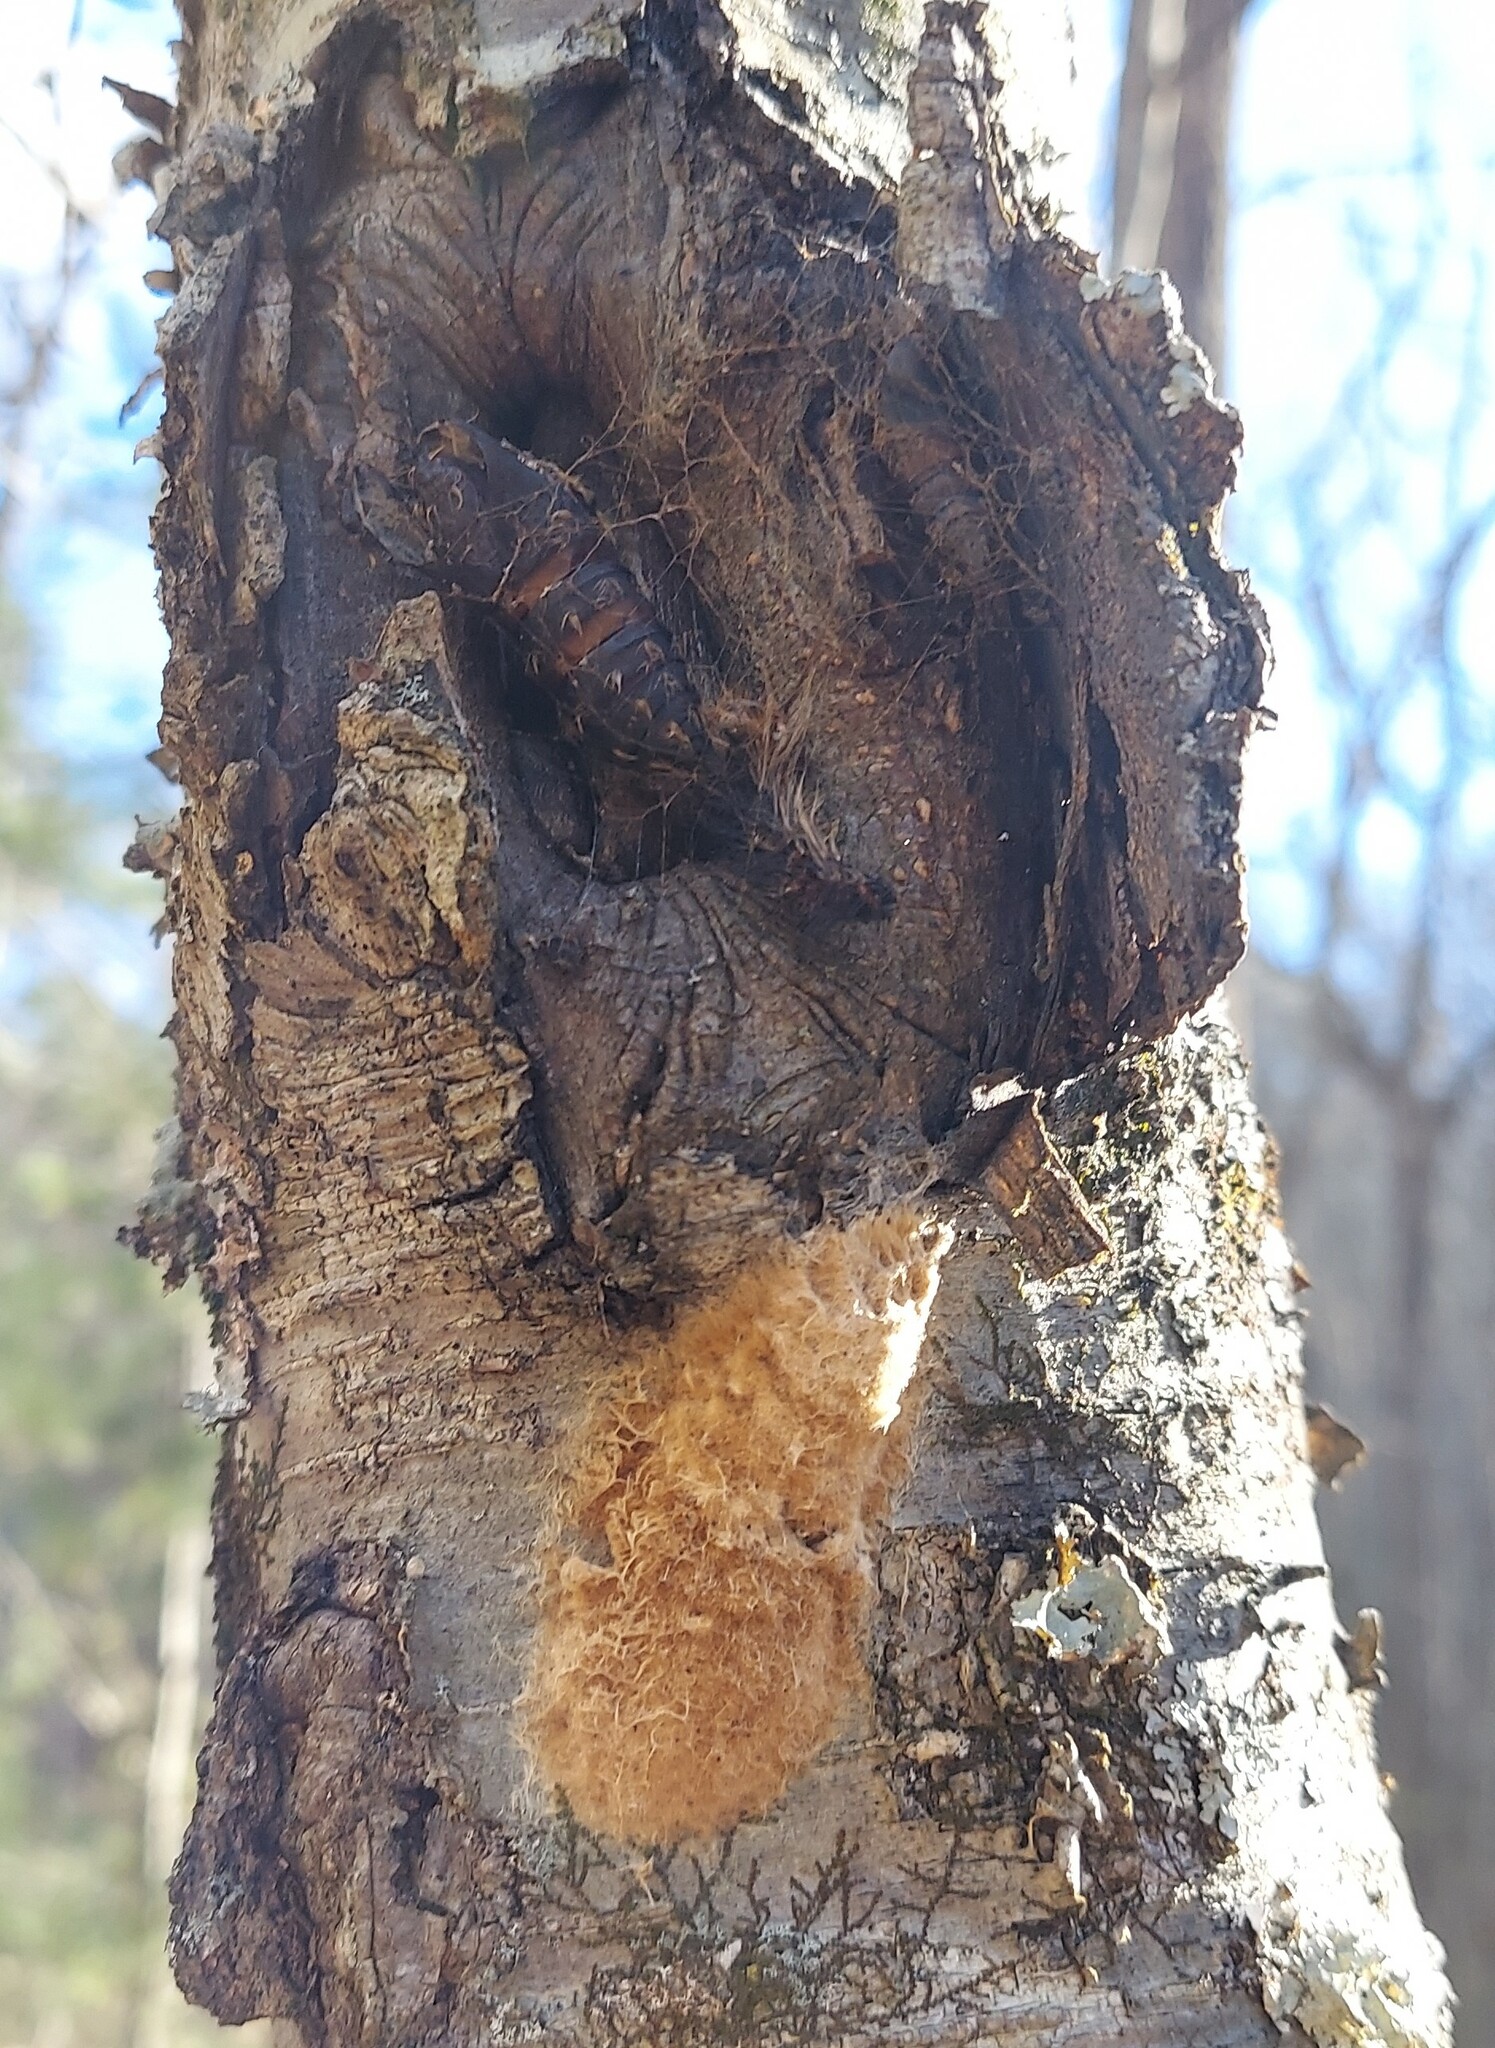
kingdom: Animalia
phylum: Arthropoda
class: Insecta
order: Lepidoptera
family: Erebidae
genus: Lymantria
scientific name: Lymantria dispar
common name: Gypsy moth
